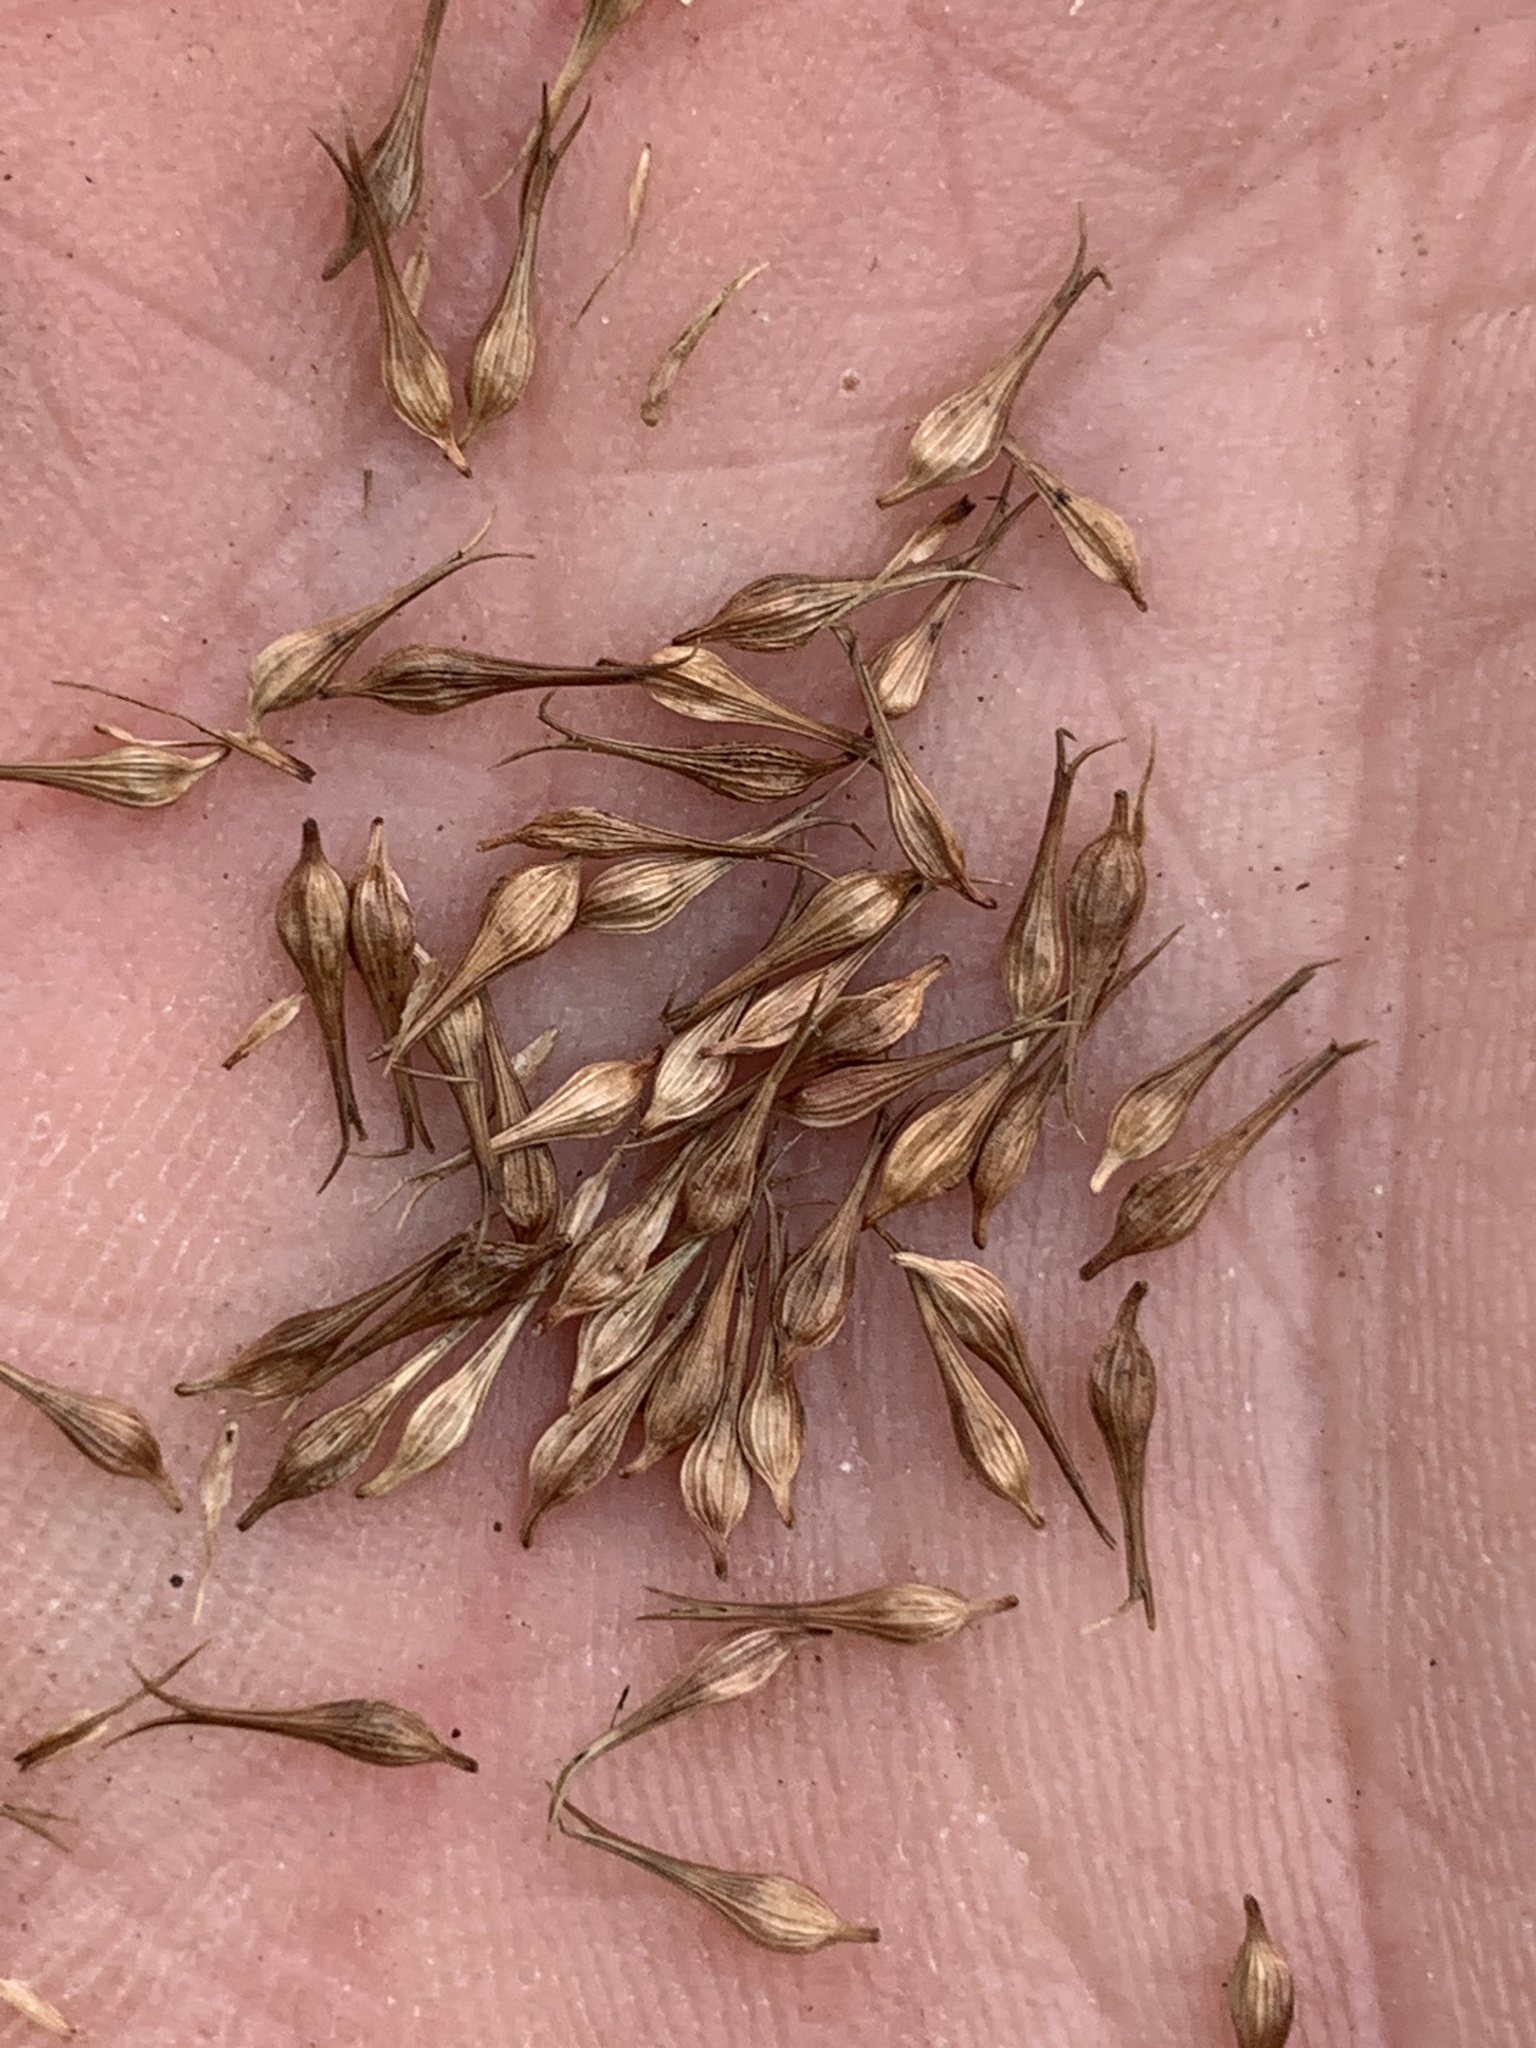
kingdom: Plantae
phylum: Tracheophyta
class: Liliopsida
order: Poales
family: Cyperaceae
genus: Carex
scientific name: Carex comosa
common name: Bristly sedge
